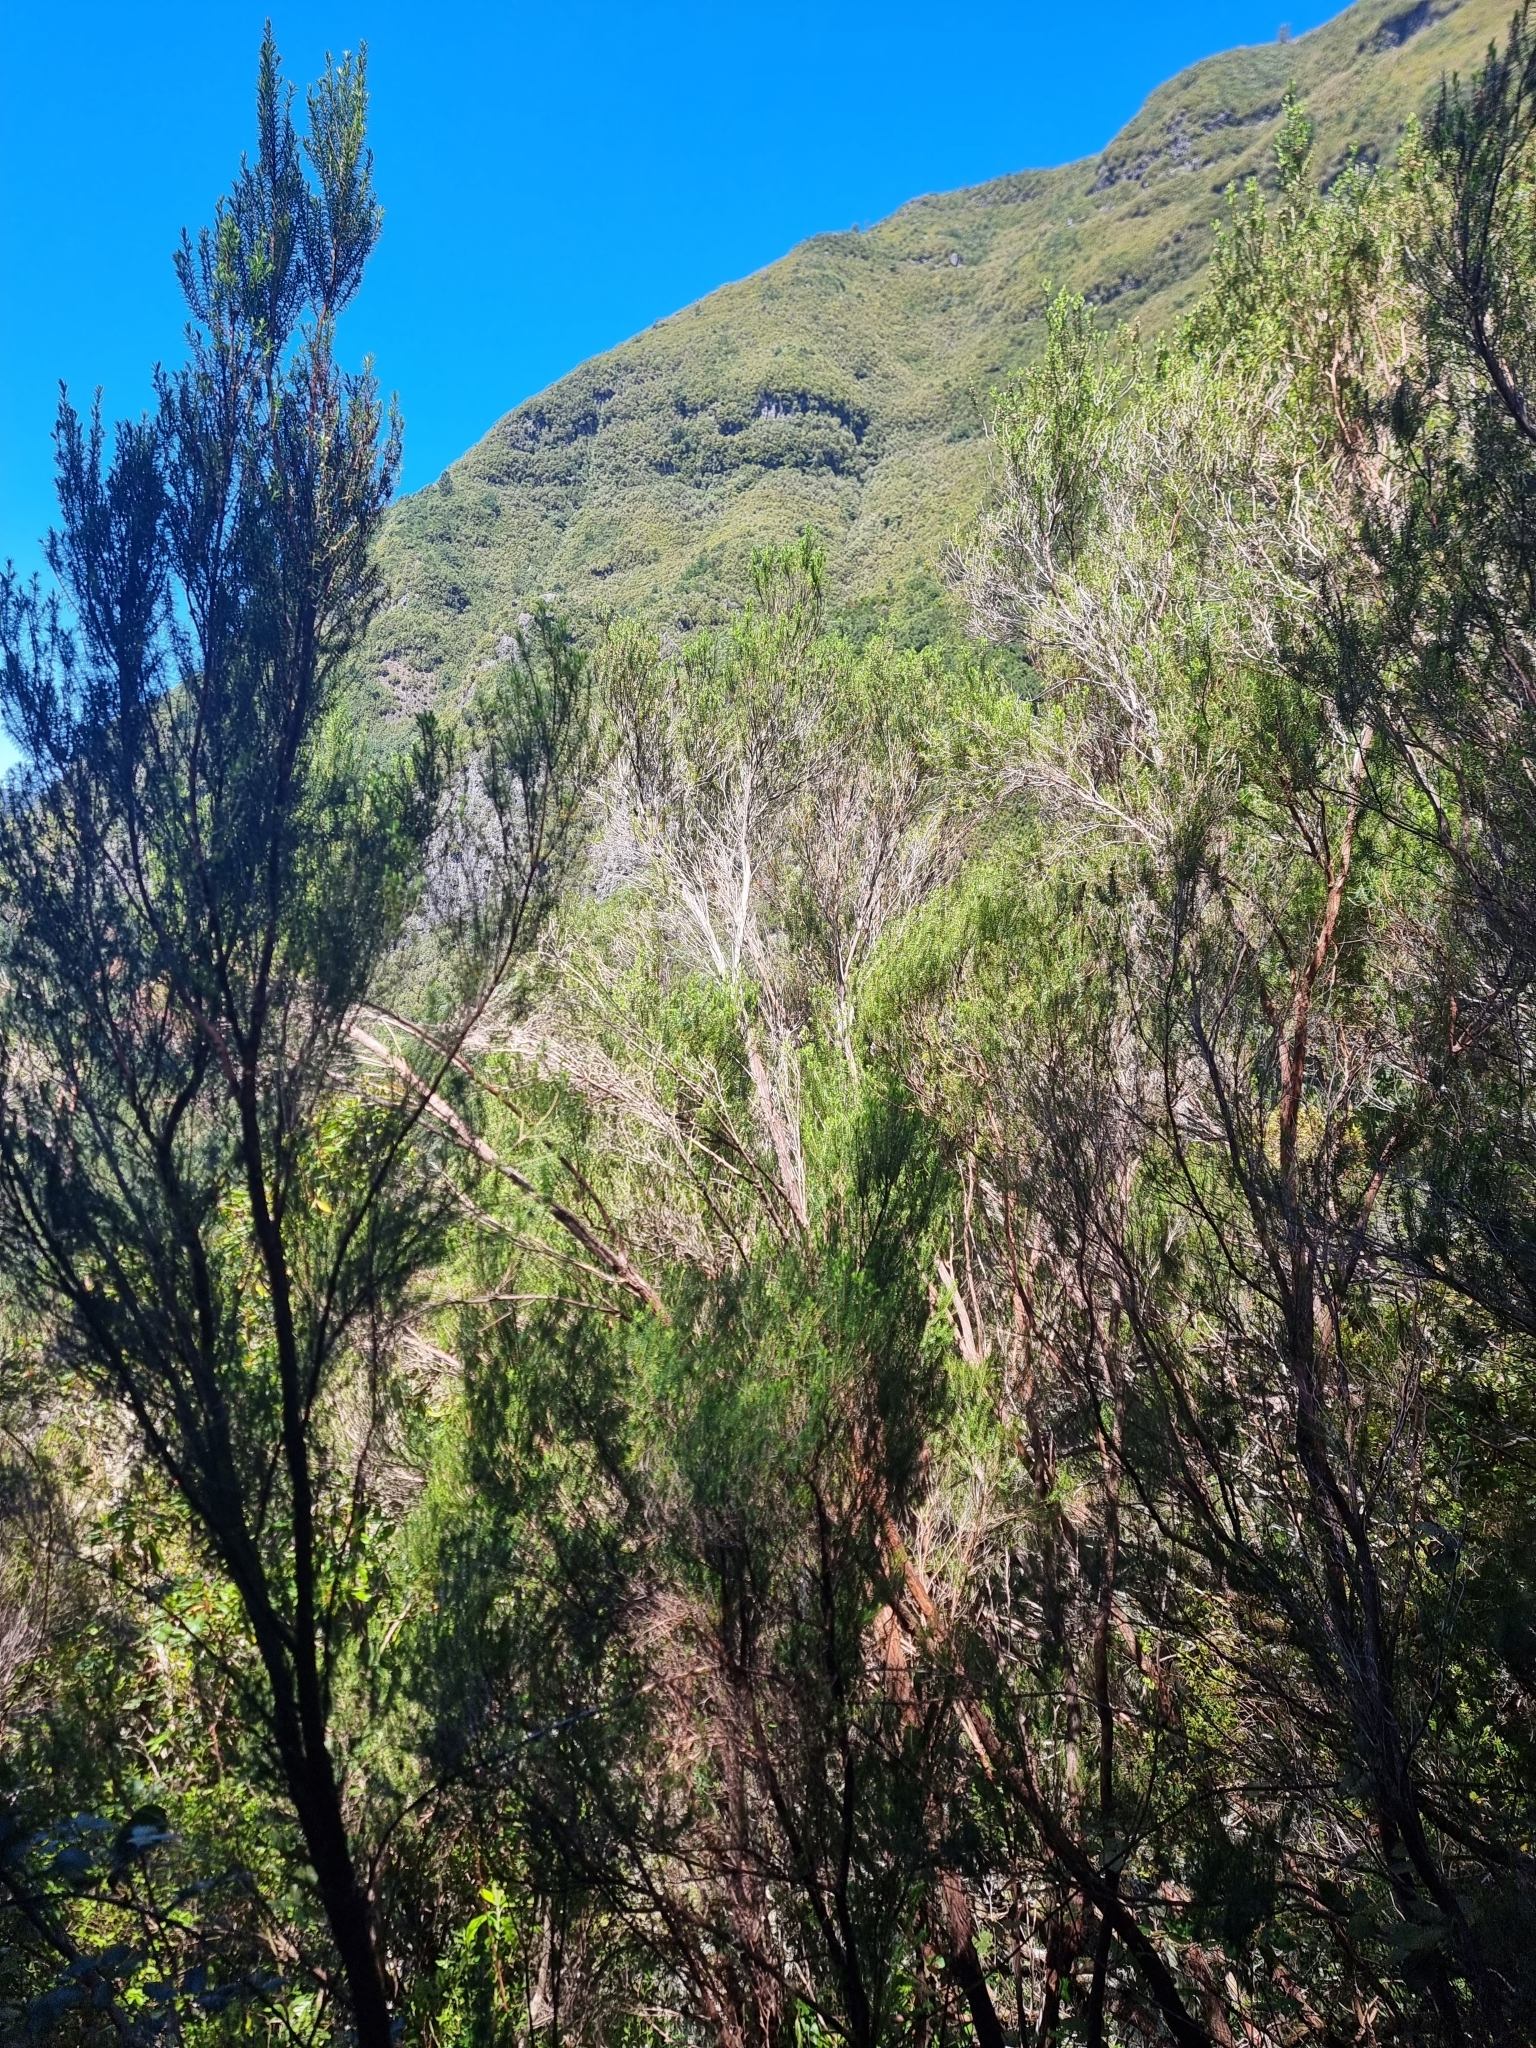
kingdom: Plantae
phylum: Tracheophyta
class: Magnoliopsida
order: Ericales
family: Ericaceae
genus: Erica
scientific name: Erica platycodon
